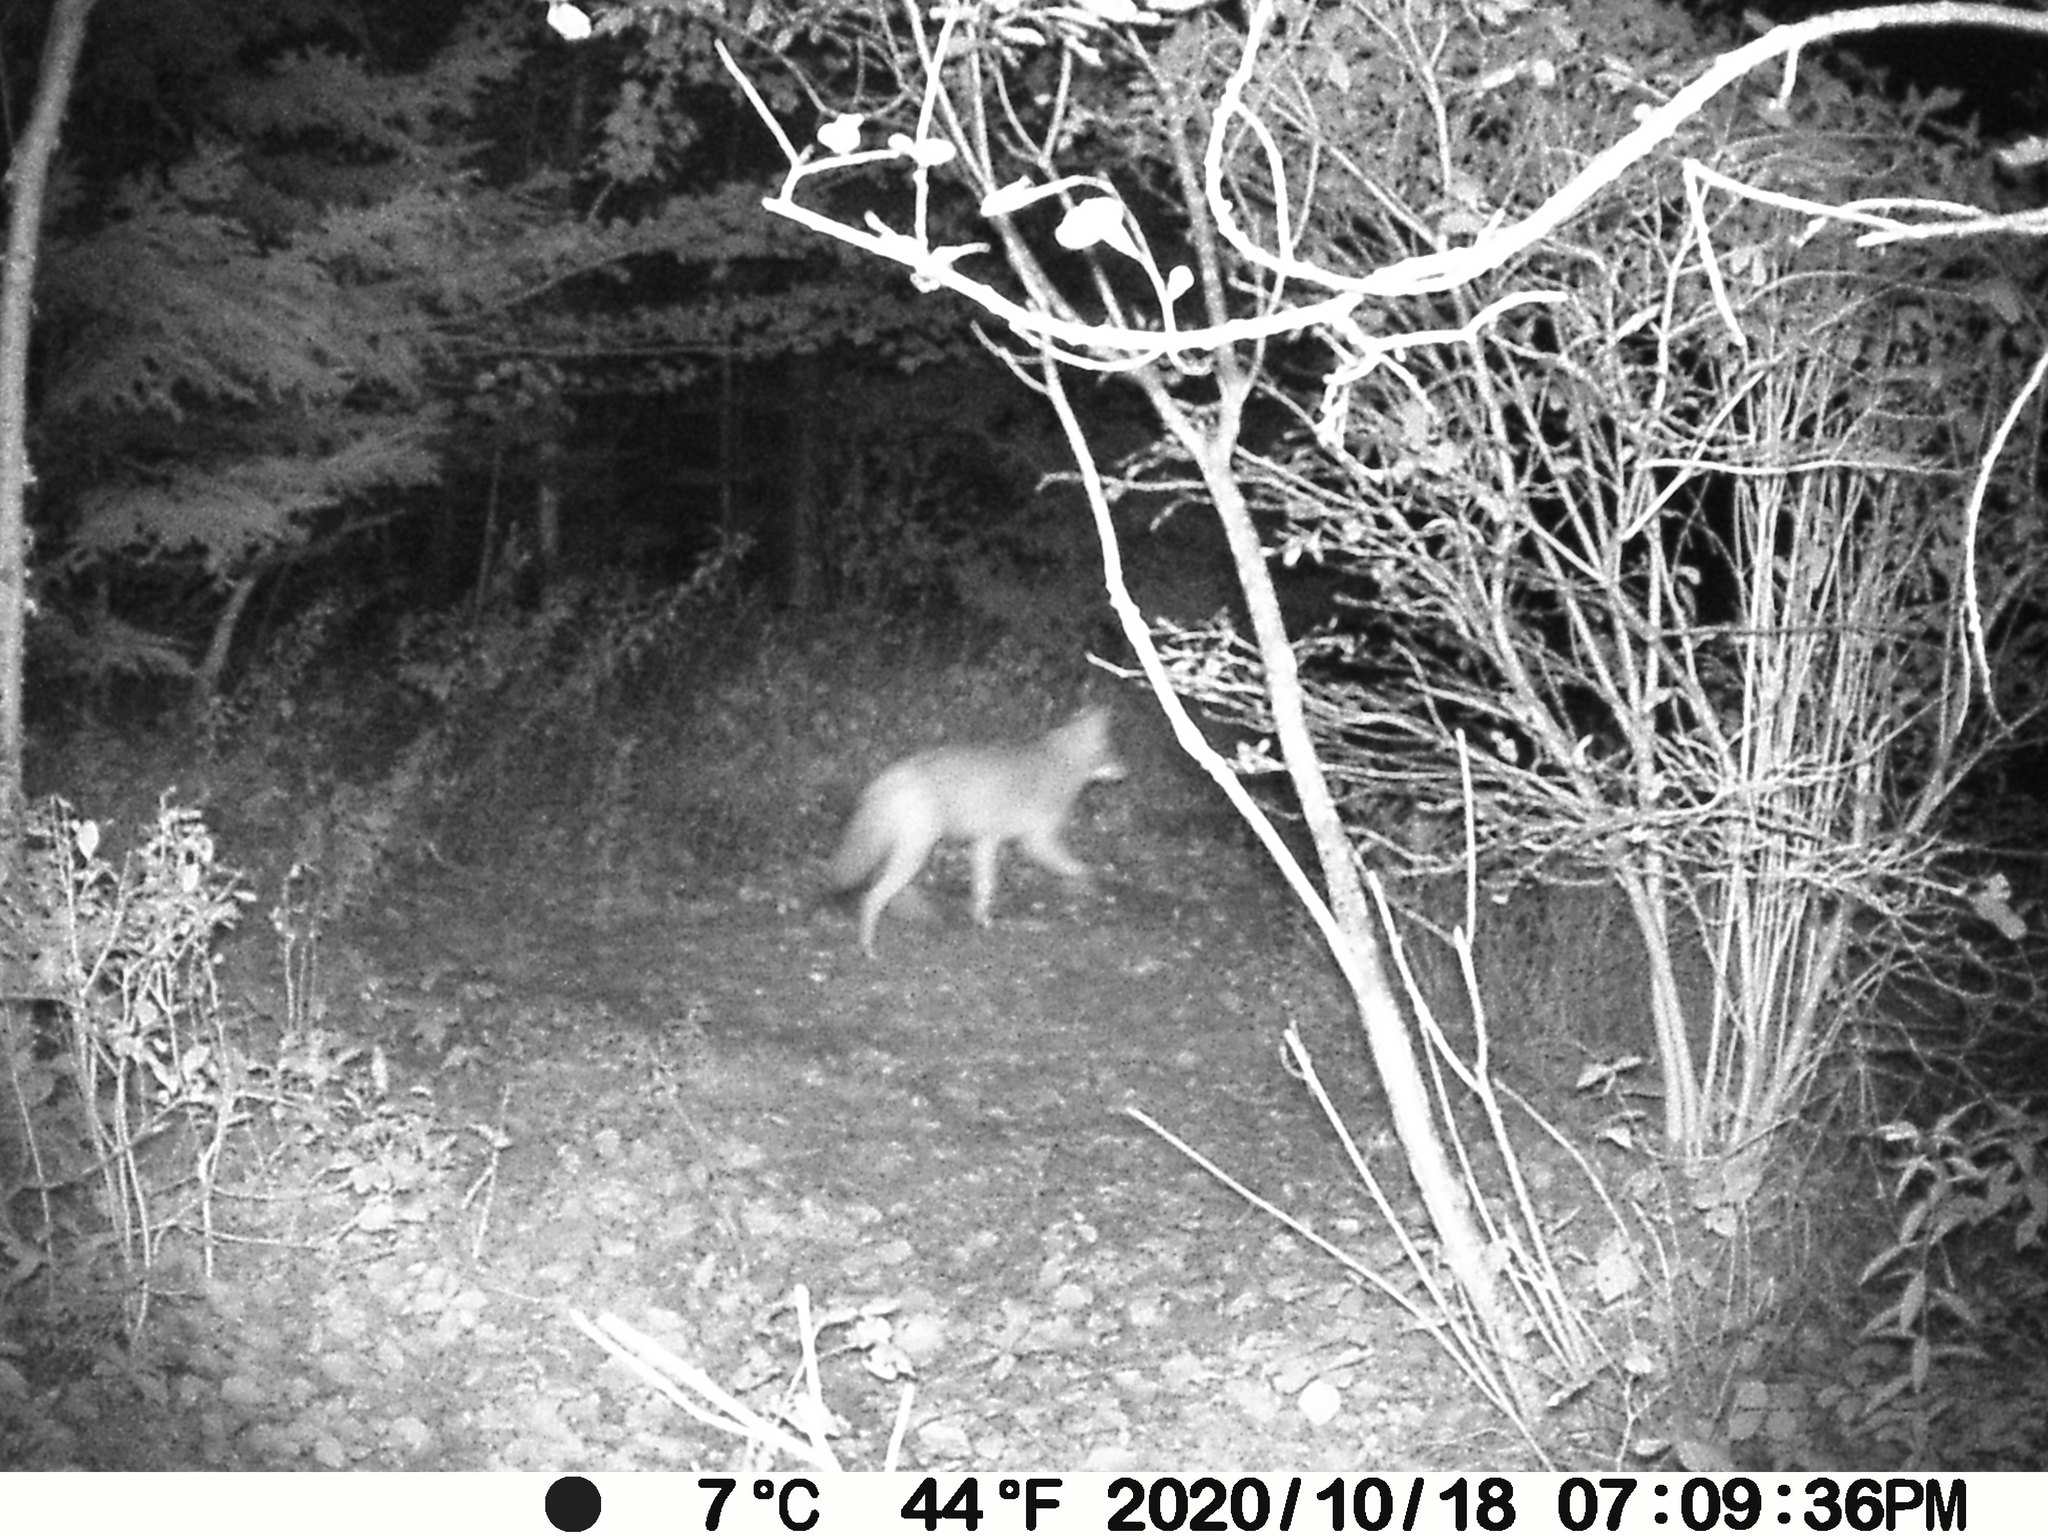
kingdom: Animalia
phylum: Chordata
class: Mammalia
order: Carnivora
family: Canidae
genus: Canis
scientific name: Canis latrans
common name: Coyote
